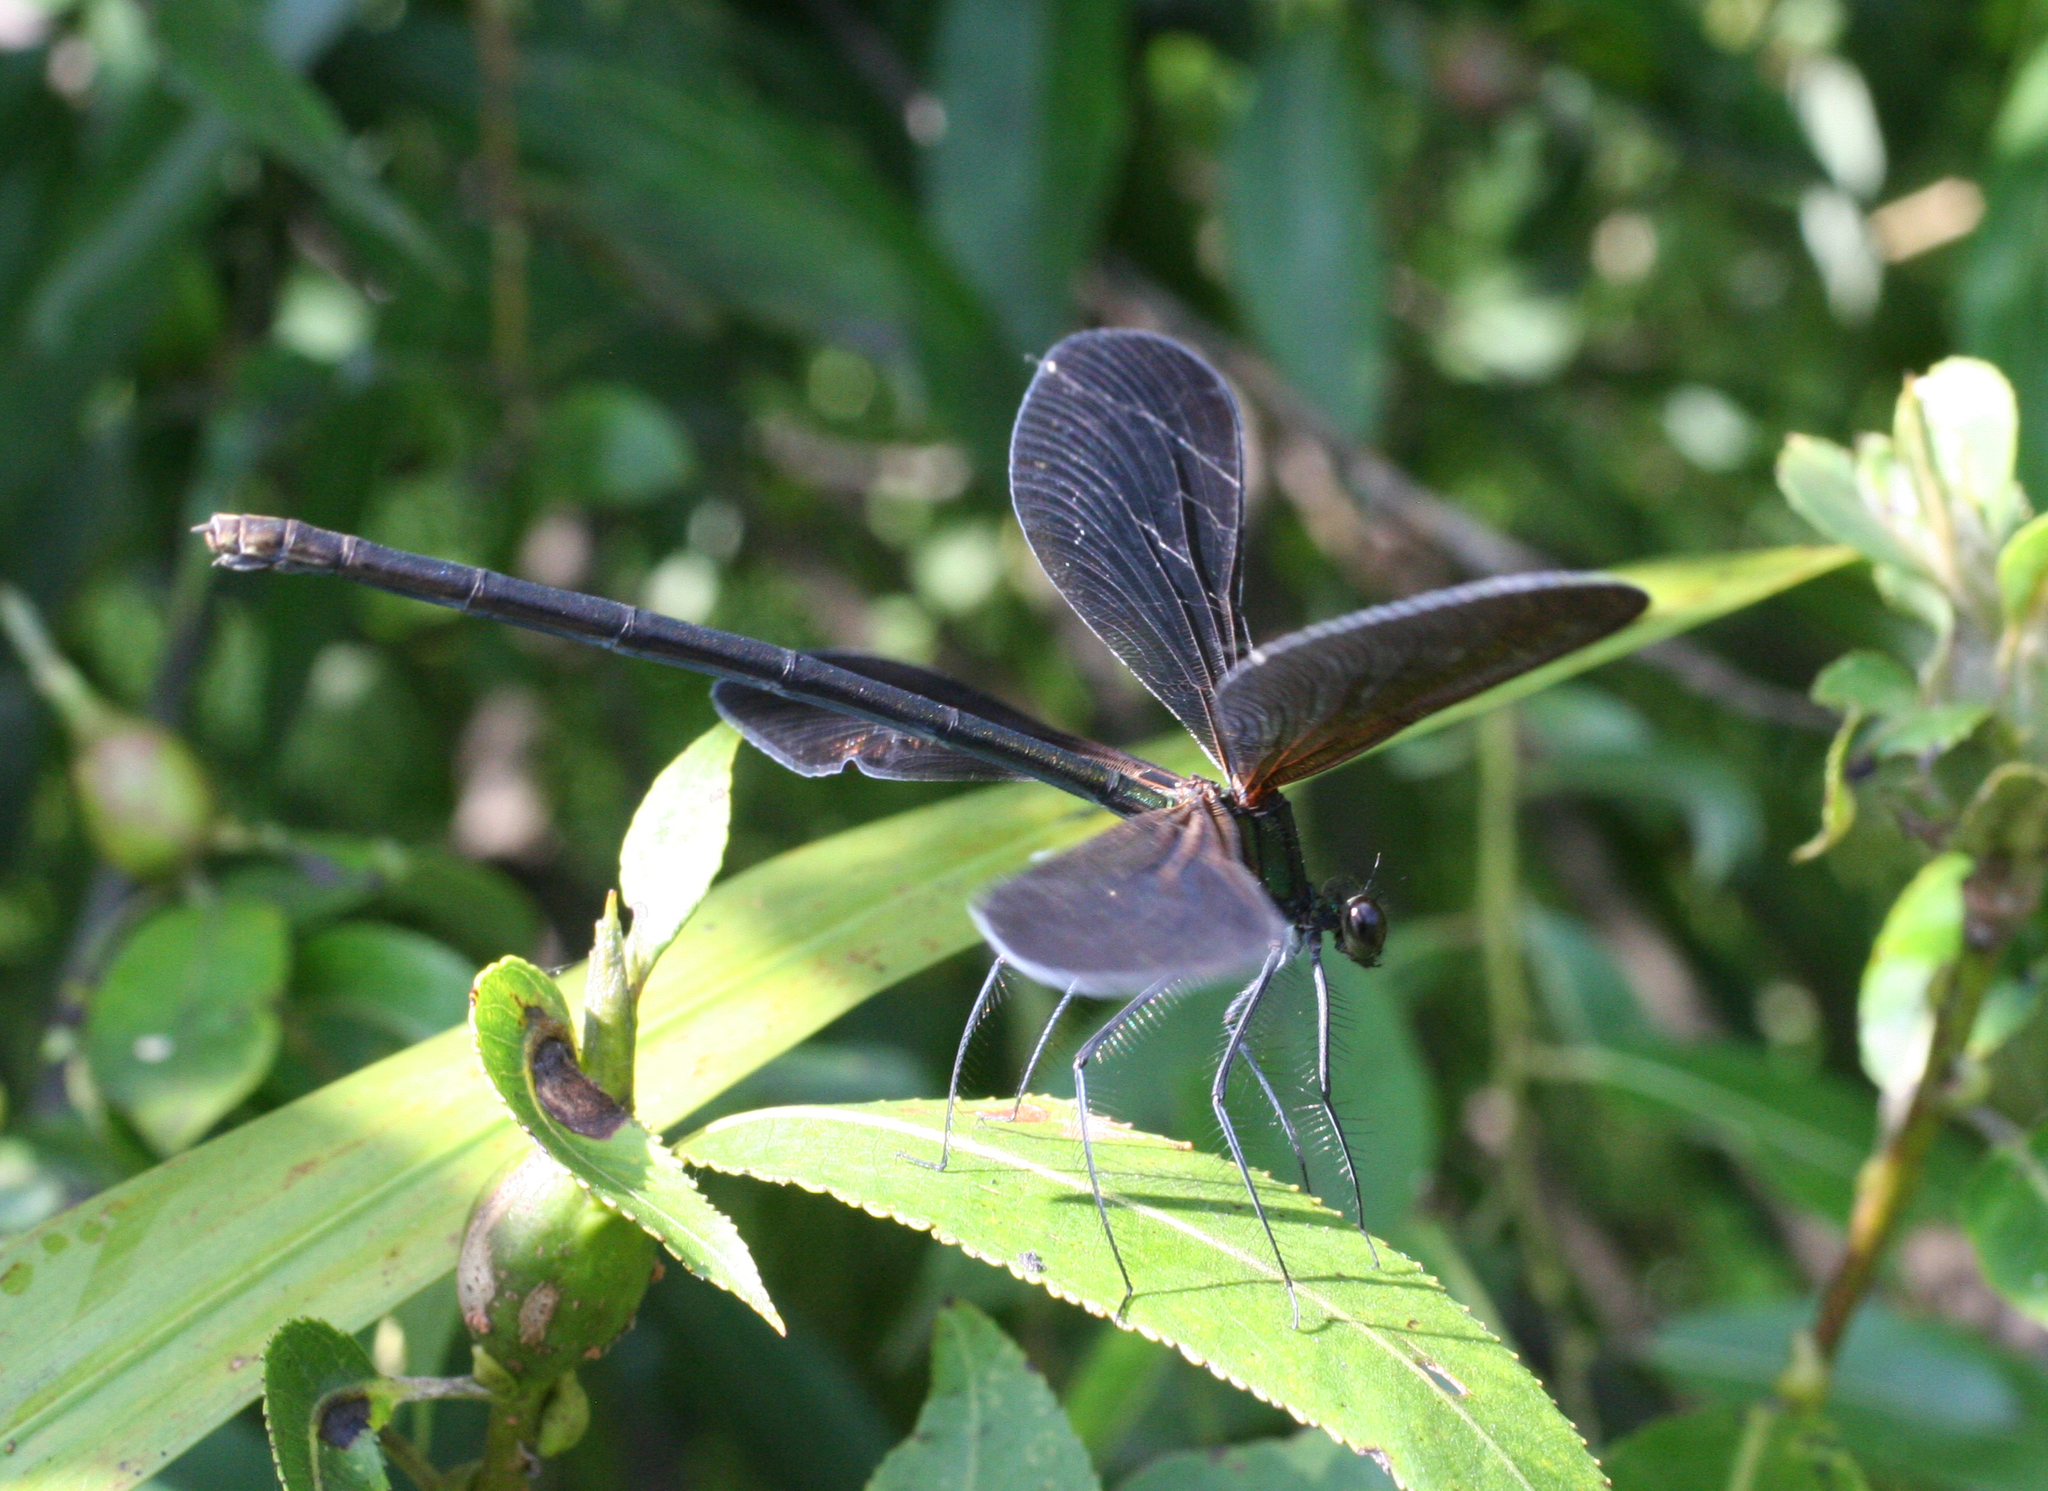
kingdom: Animalia
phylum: Arthropoda
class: Insecta
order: Odonata
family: Calopterygidae
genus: Atrocalopteryx
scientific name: Atrocalopteryx atrata
